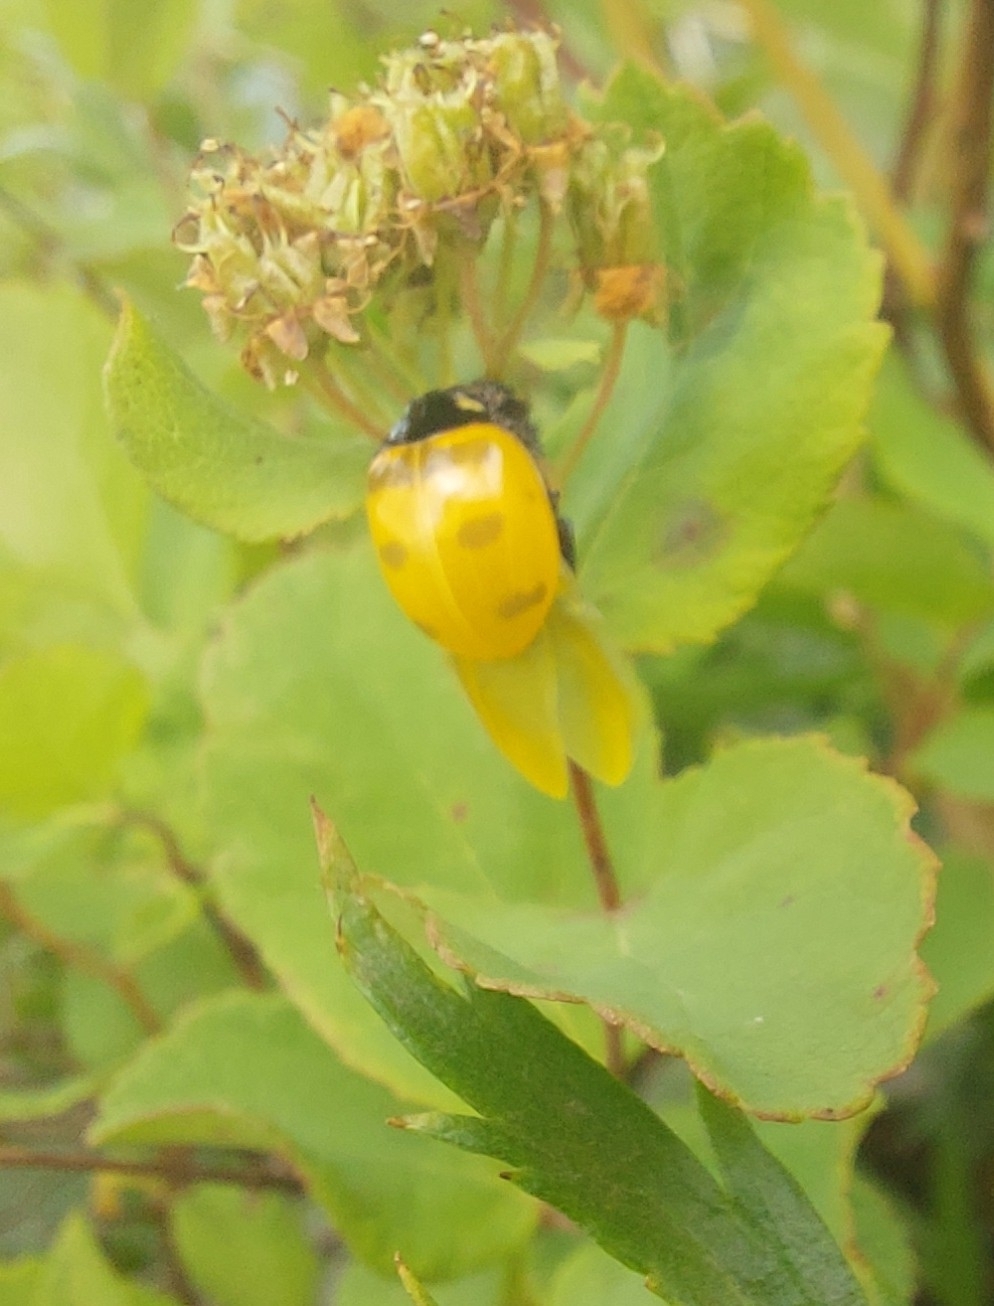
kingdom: Animalia
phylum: Arthropoda
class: Insecta
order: Coleoptera
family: Coccinellidae
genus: Coccinella
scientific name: Coccinella transversoguttata
